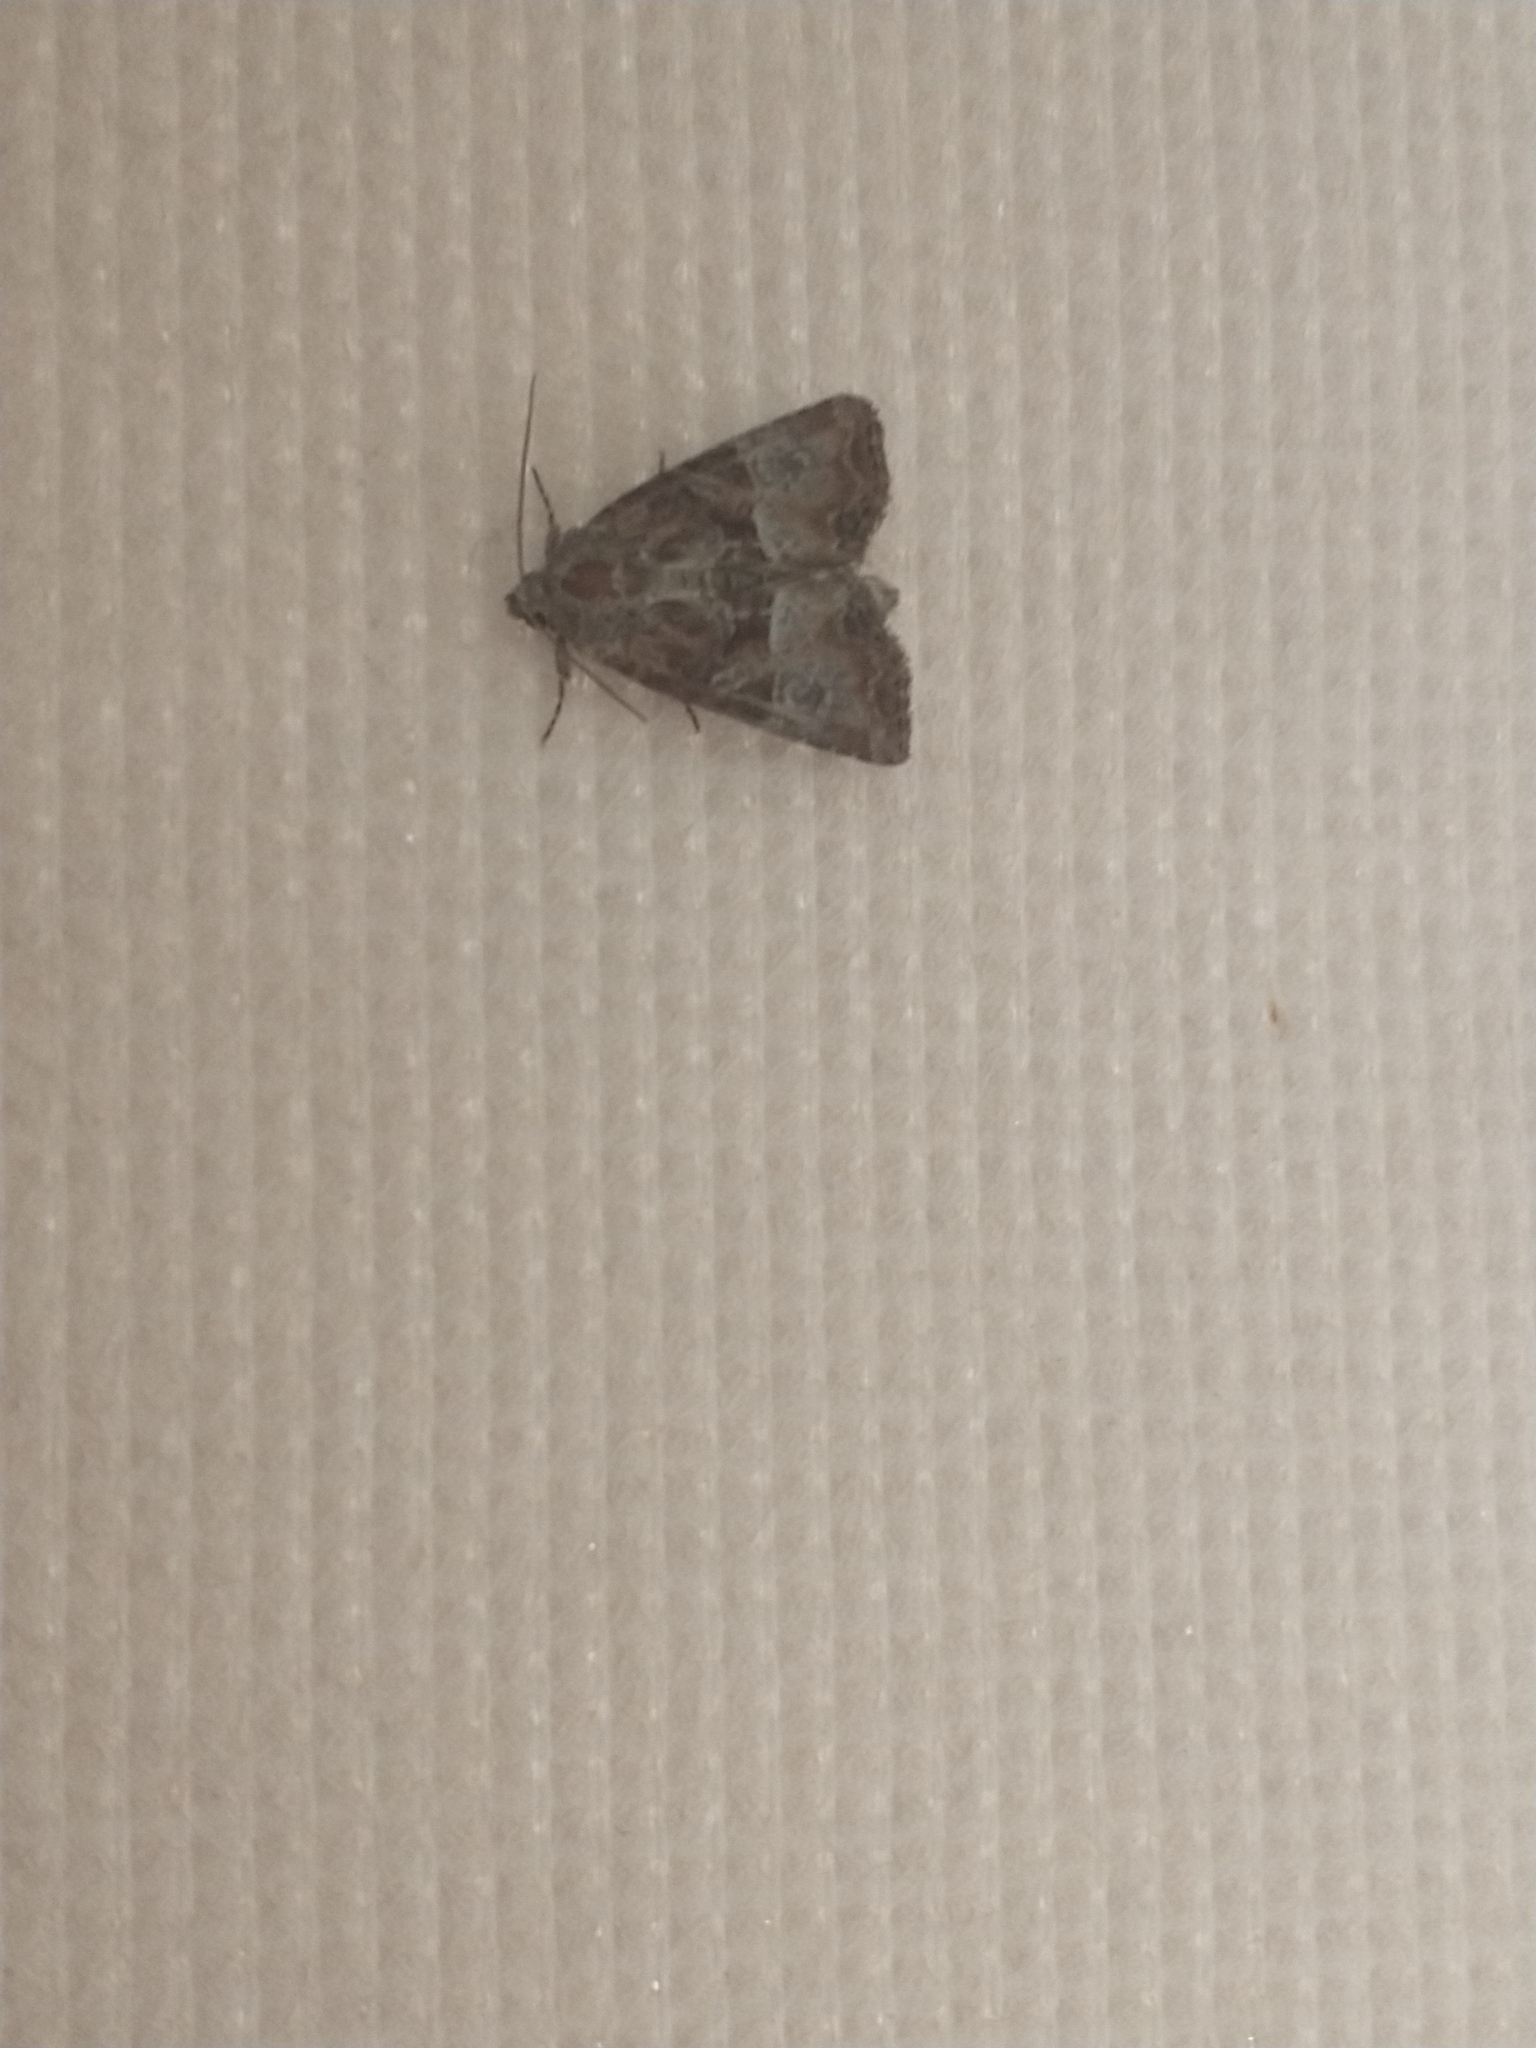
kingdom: Animalia
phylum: Arthropoda
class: Insecta
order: Lepidoptera
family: Noctuidae
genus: Mesoligia
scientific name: Mesoligia furuncula
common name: Cloaked minor
